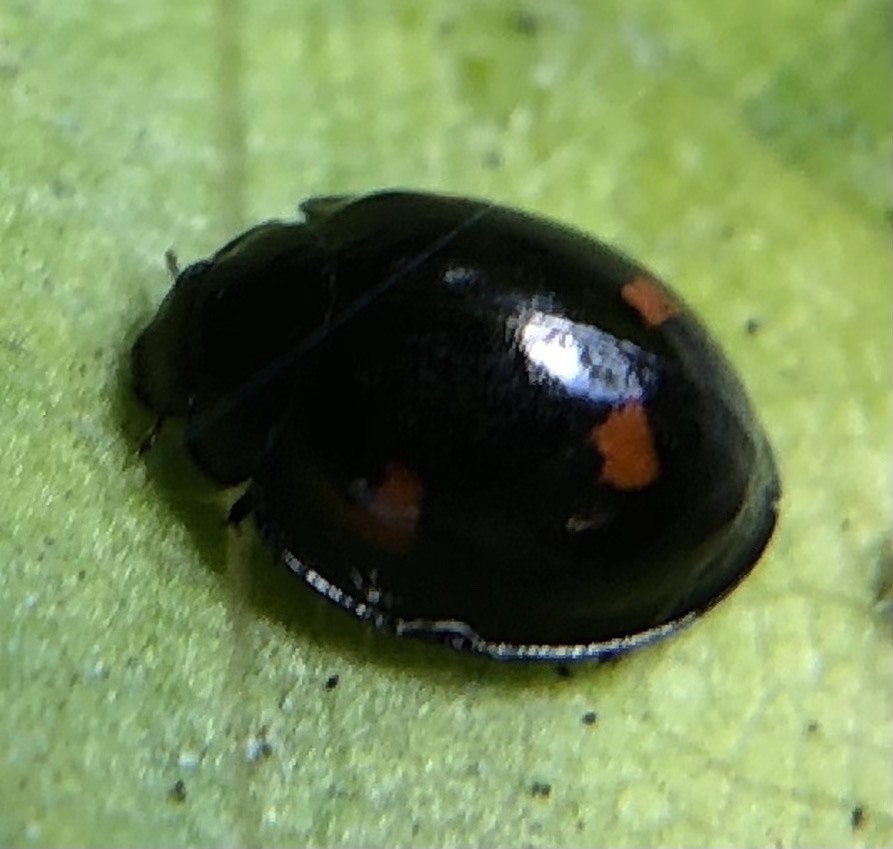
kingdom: Animalia
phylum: Arthropoda
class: Insecta
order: Coleoptera
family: Coccinellidae
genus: Brumus
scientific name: Brumus quadripustulatus
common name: Ladybird beetle
